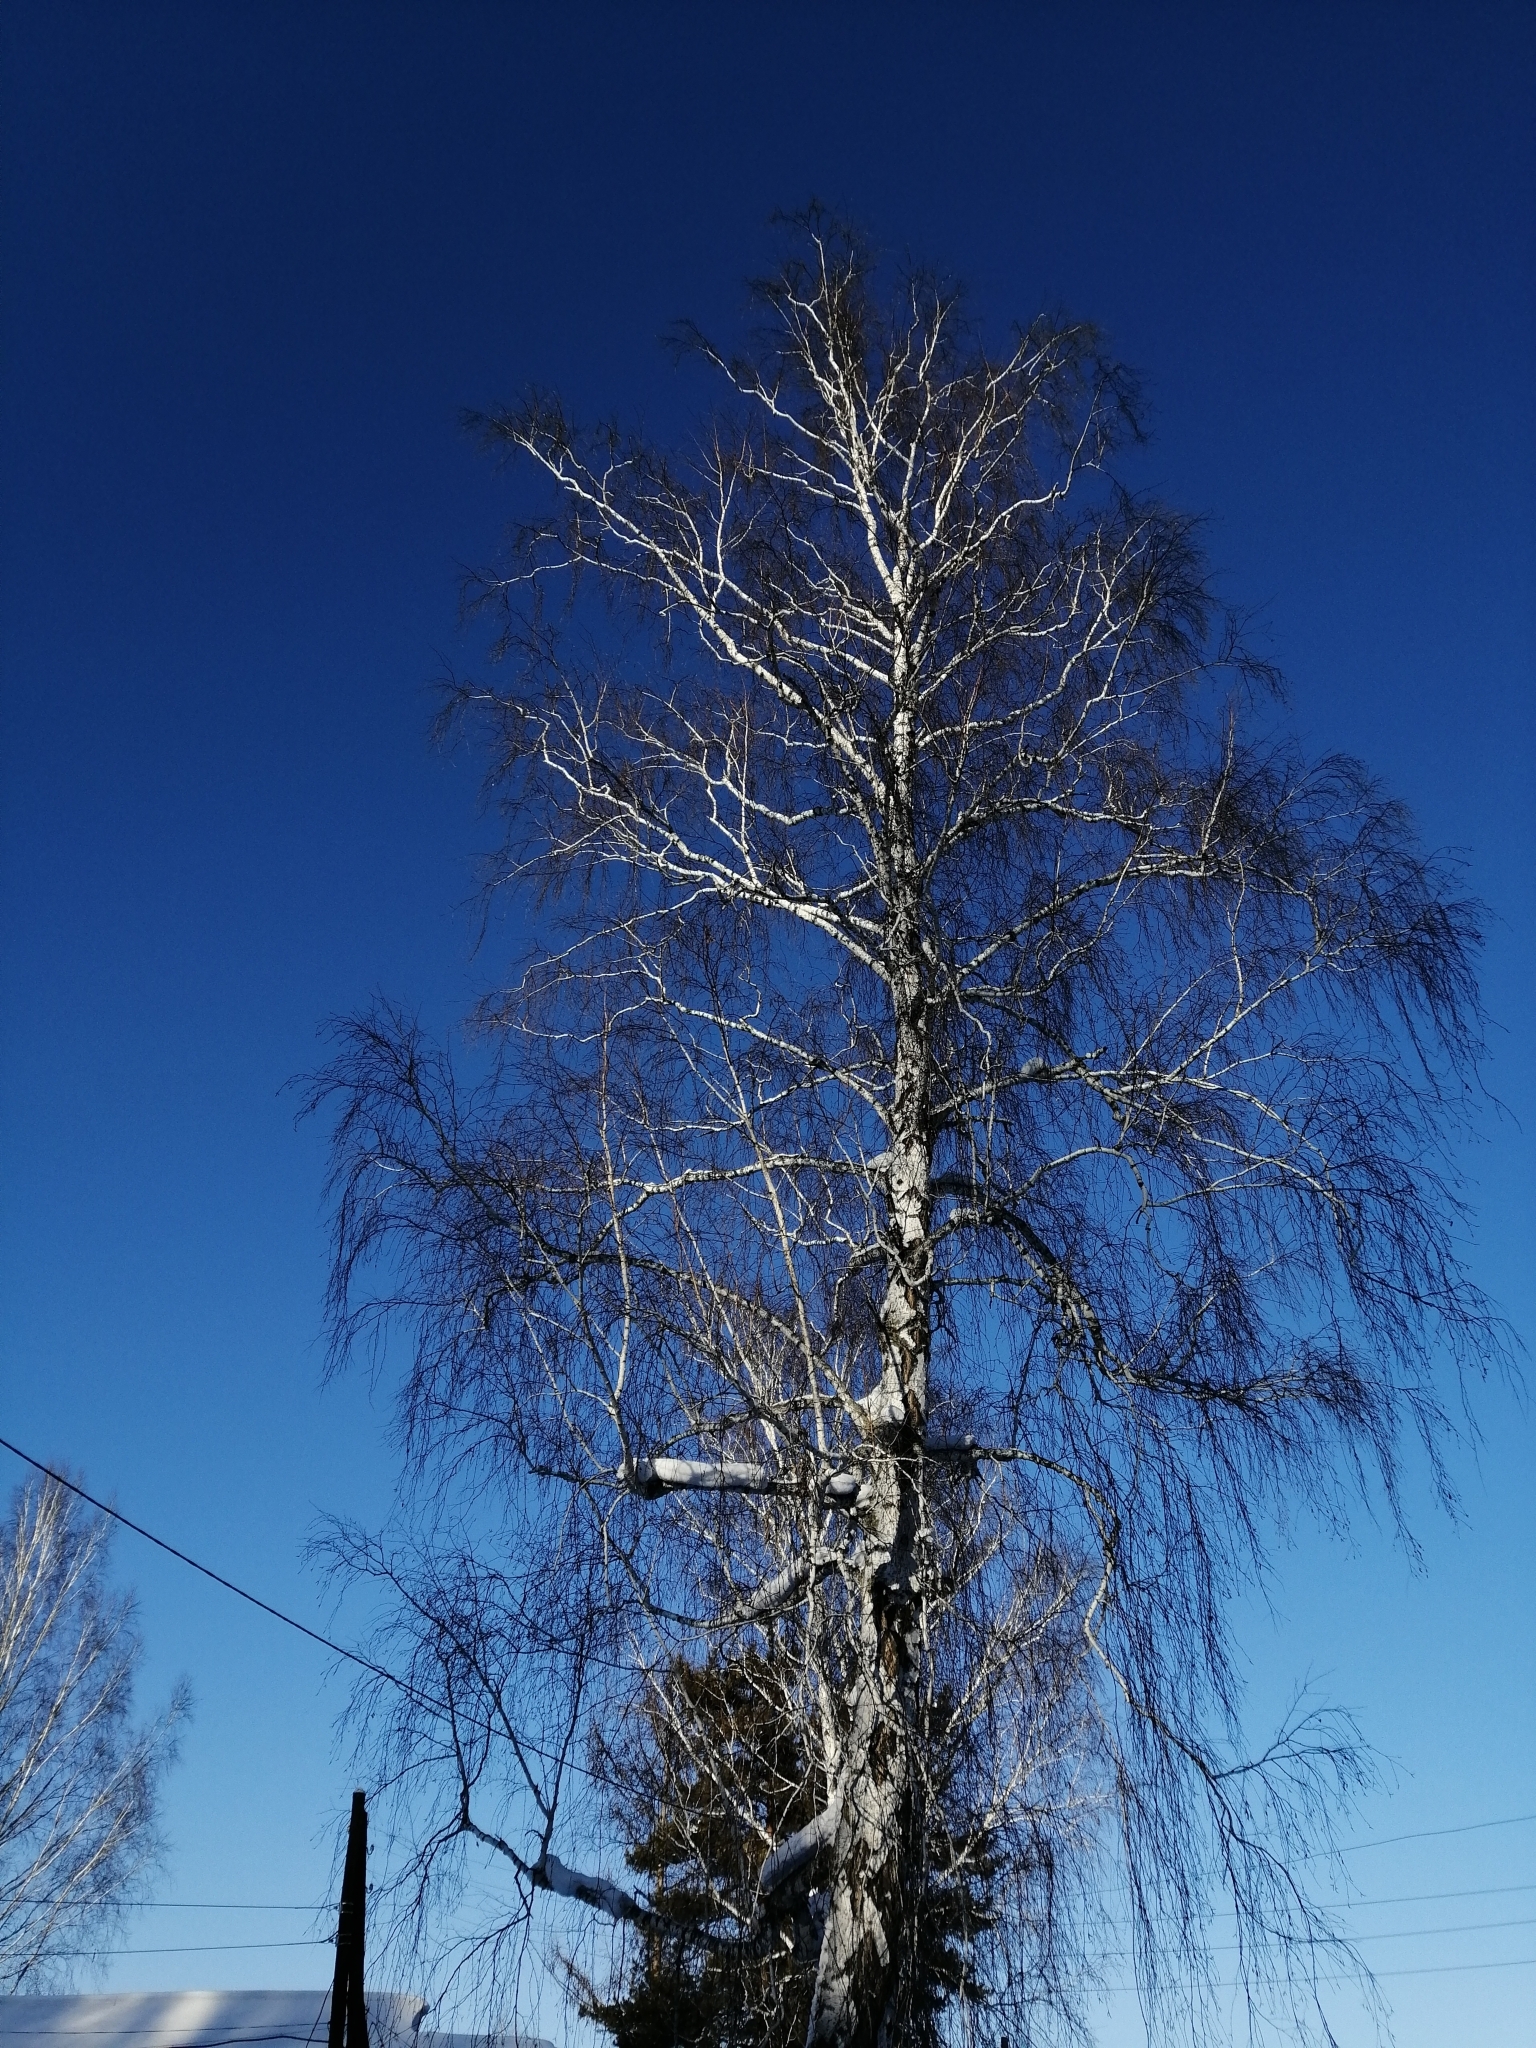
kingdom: Plantae
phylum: Tracheophyta
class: Magnoliopsida
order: Fagales
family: Betulaceae
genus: Betula
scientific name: Betula pendula
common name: Silver birch
